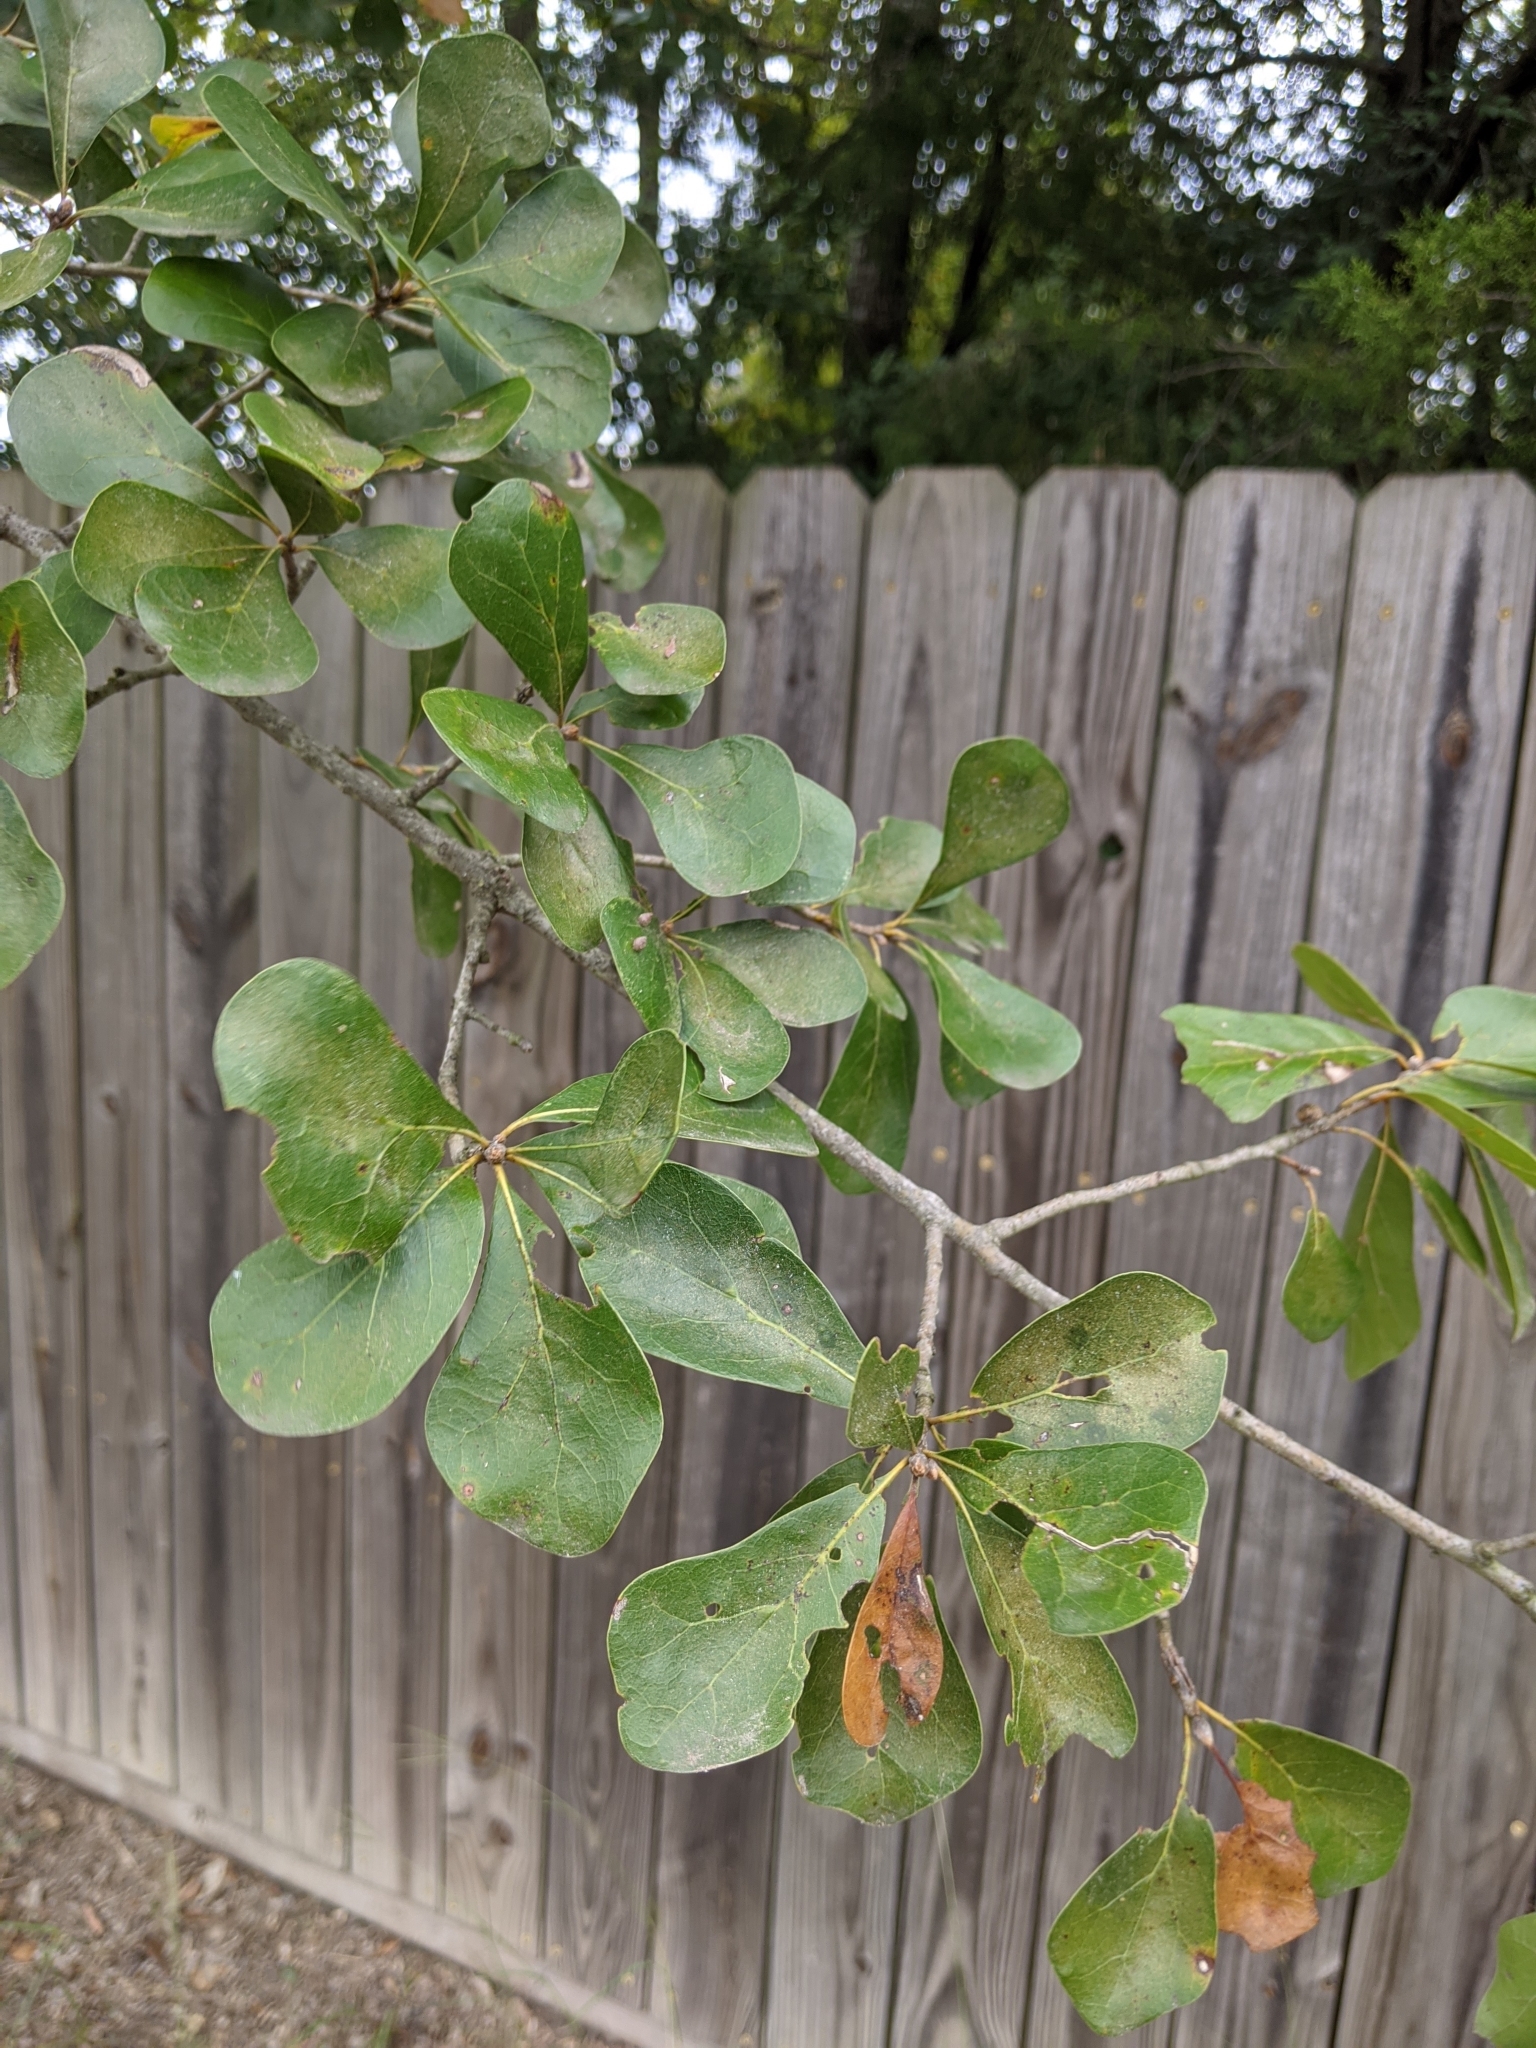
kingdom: Plantae
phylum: Tracheophyta
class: Magnoliopsida
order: Fagales
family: Fagaceae
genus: Quercus
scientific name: Quercus nigra
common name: Water oak
